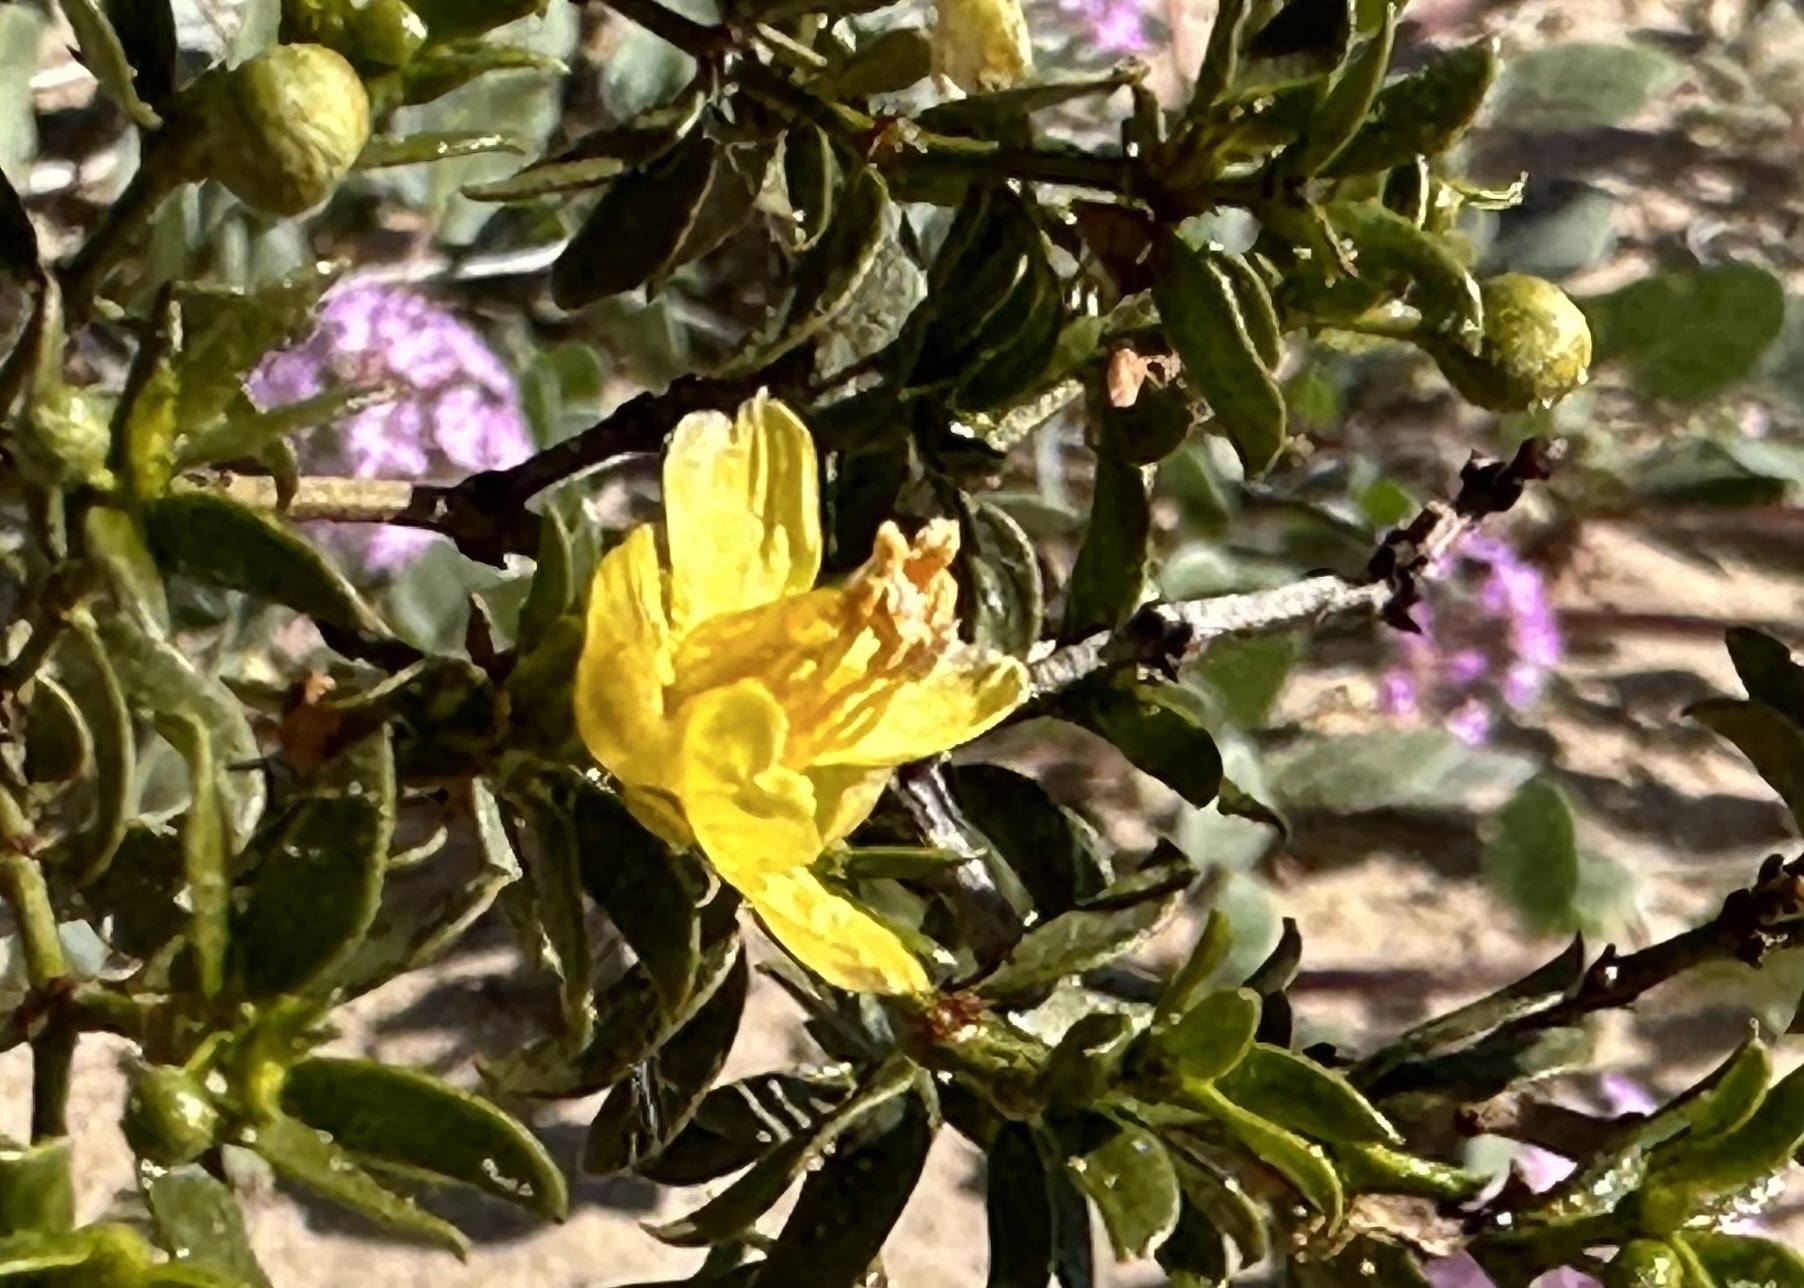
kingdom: Plantae
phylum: Tracheophyta
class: Magnoliopsida
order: Zygophyllales
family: Zygophyllaceae
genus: Larrea
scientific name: Larrea tridentata
